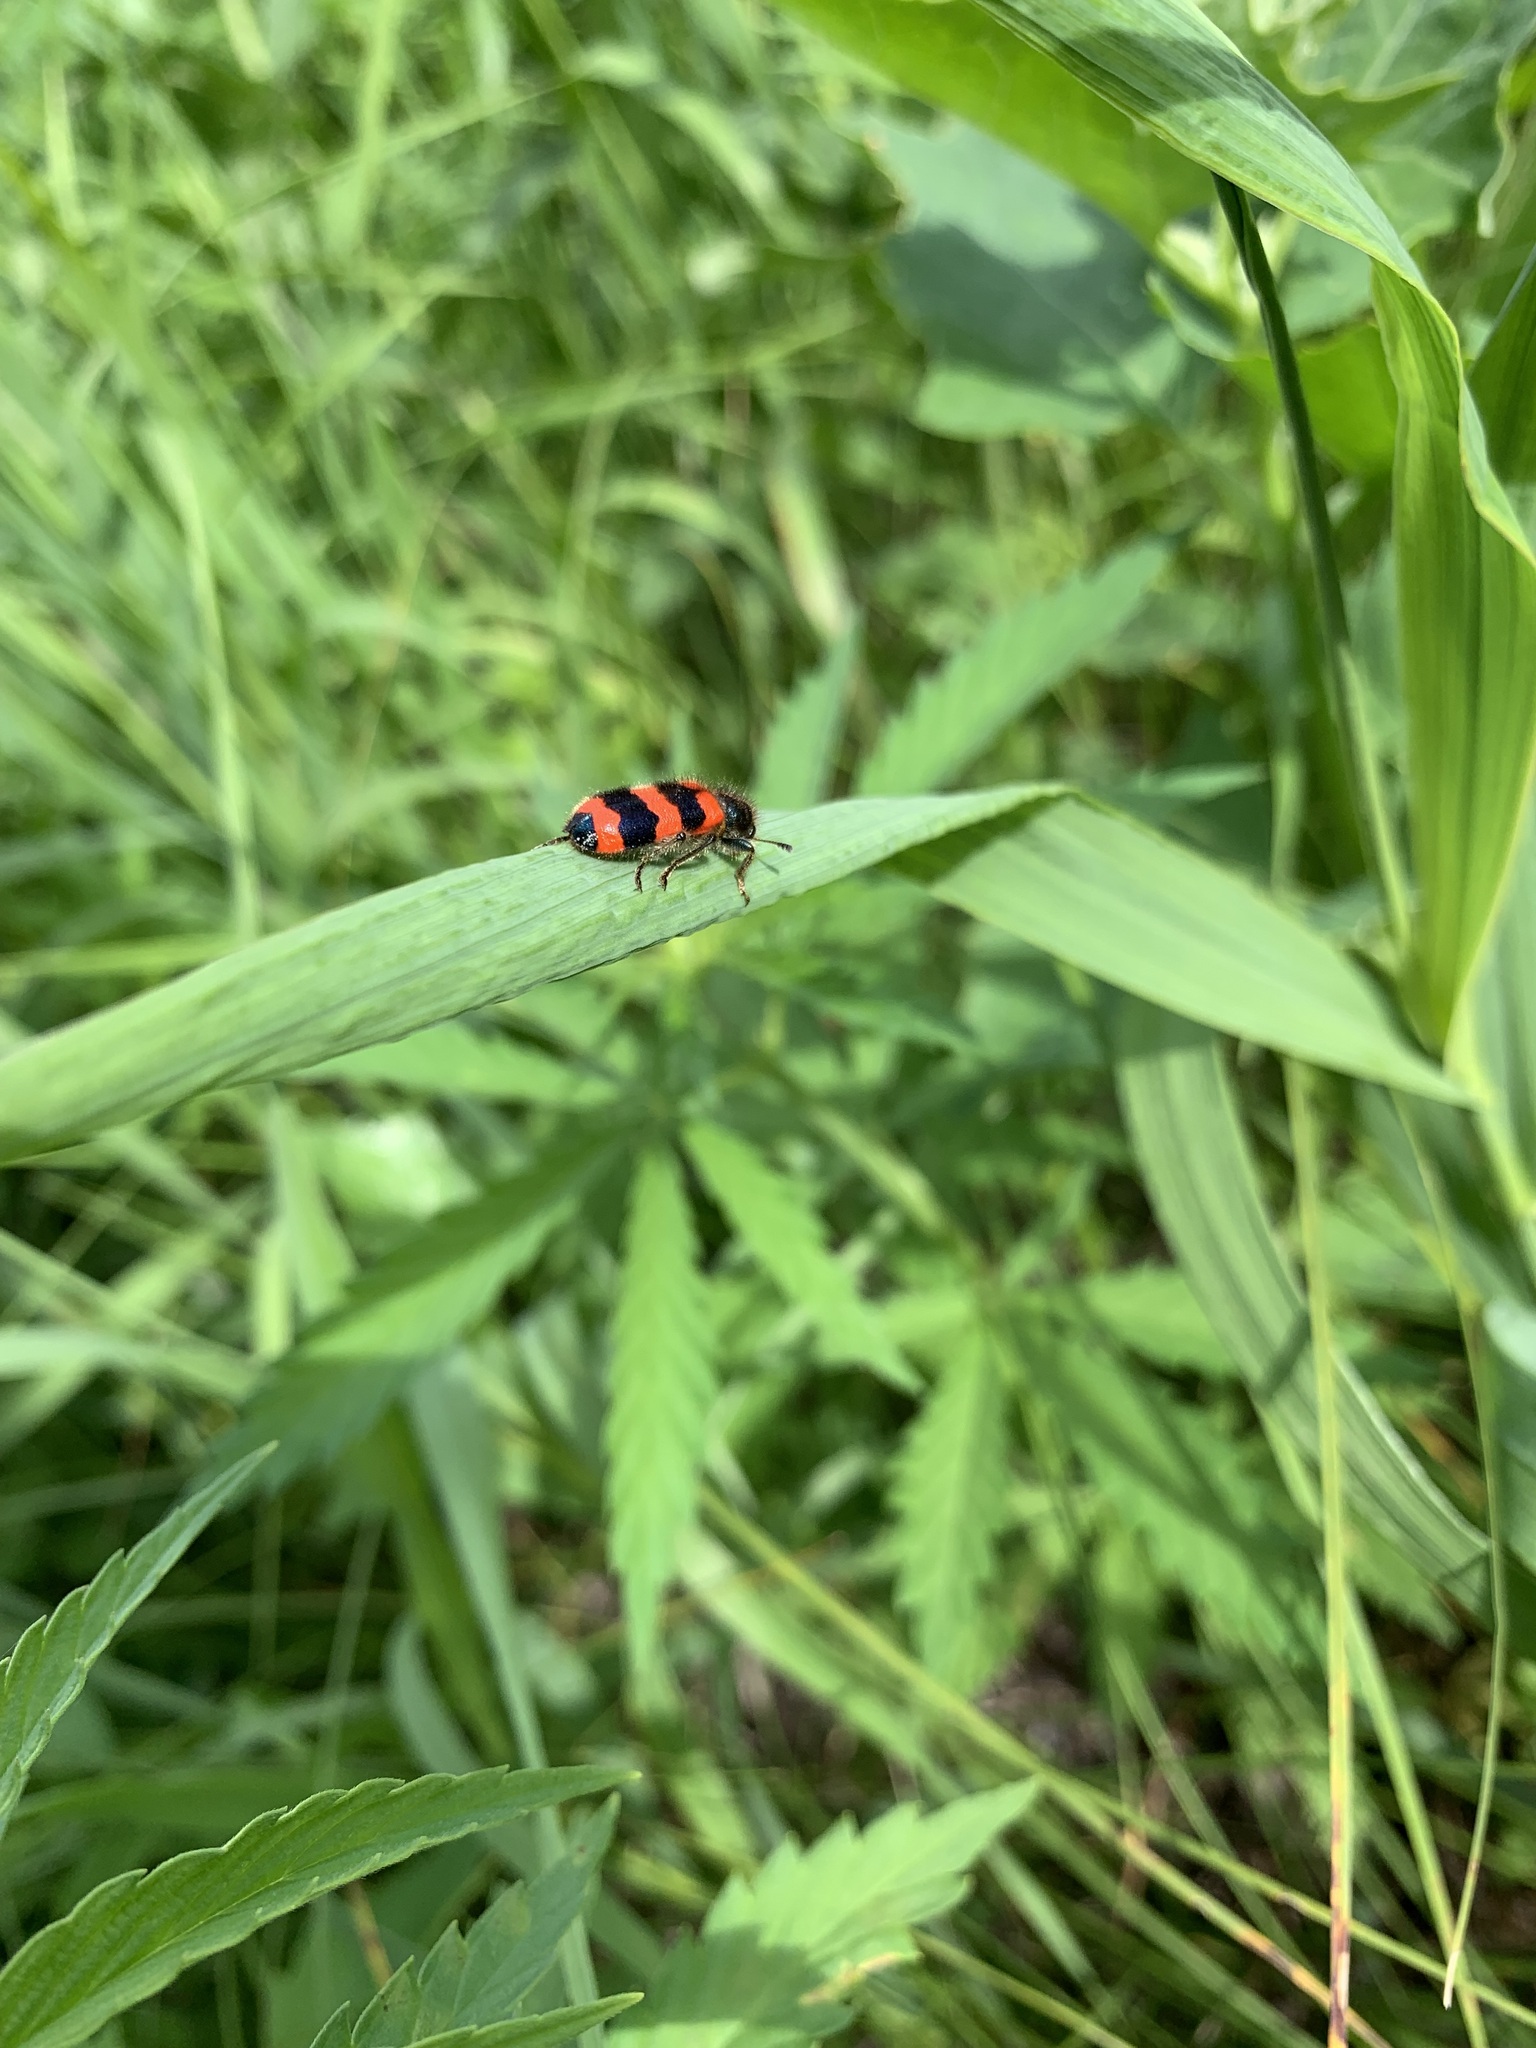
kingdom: Animalia
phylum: Arthropoda
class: Insecta
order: Coleoptera
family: Cleridae
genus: Trichodes
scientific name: Trichodes apiarius
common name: Bee-eating beetle
